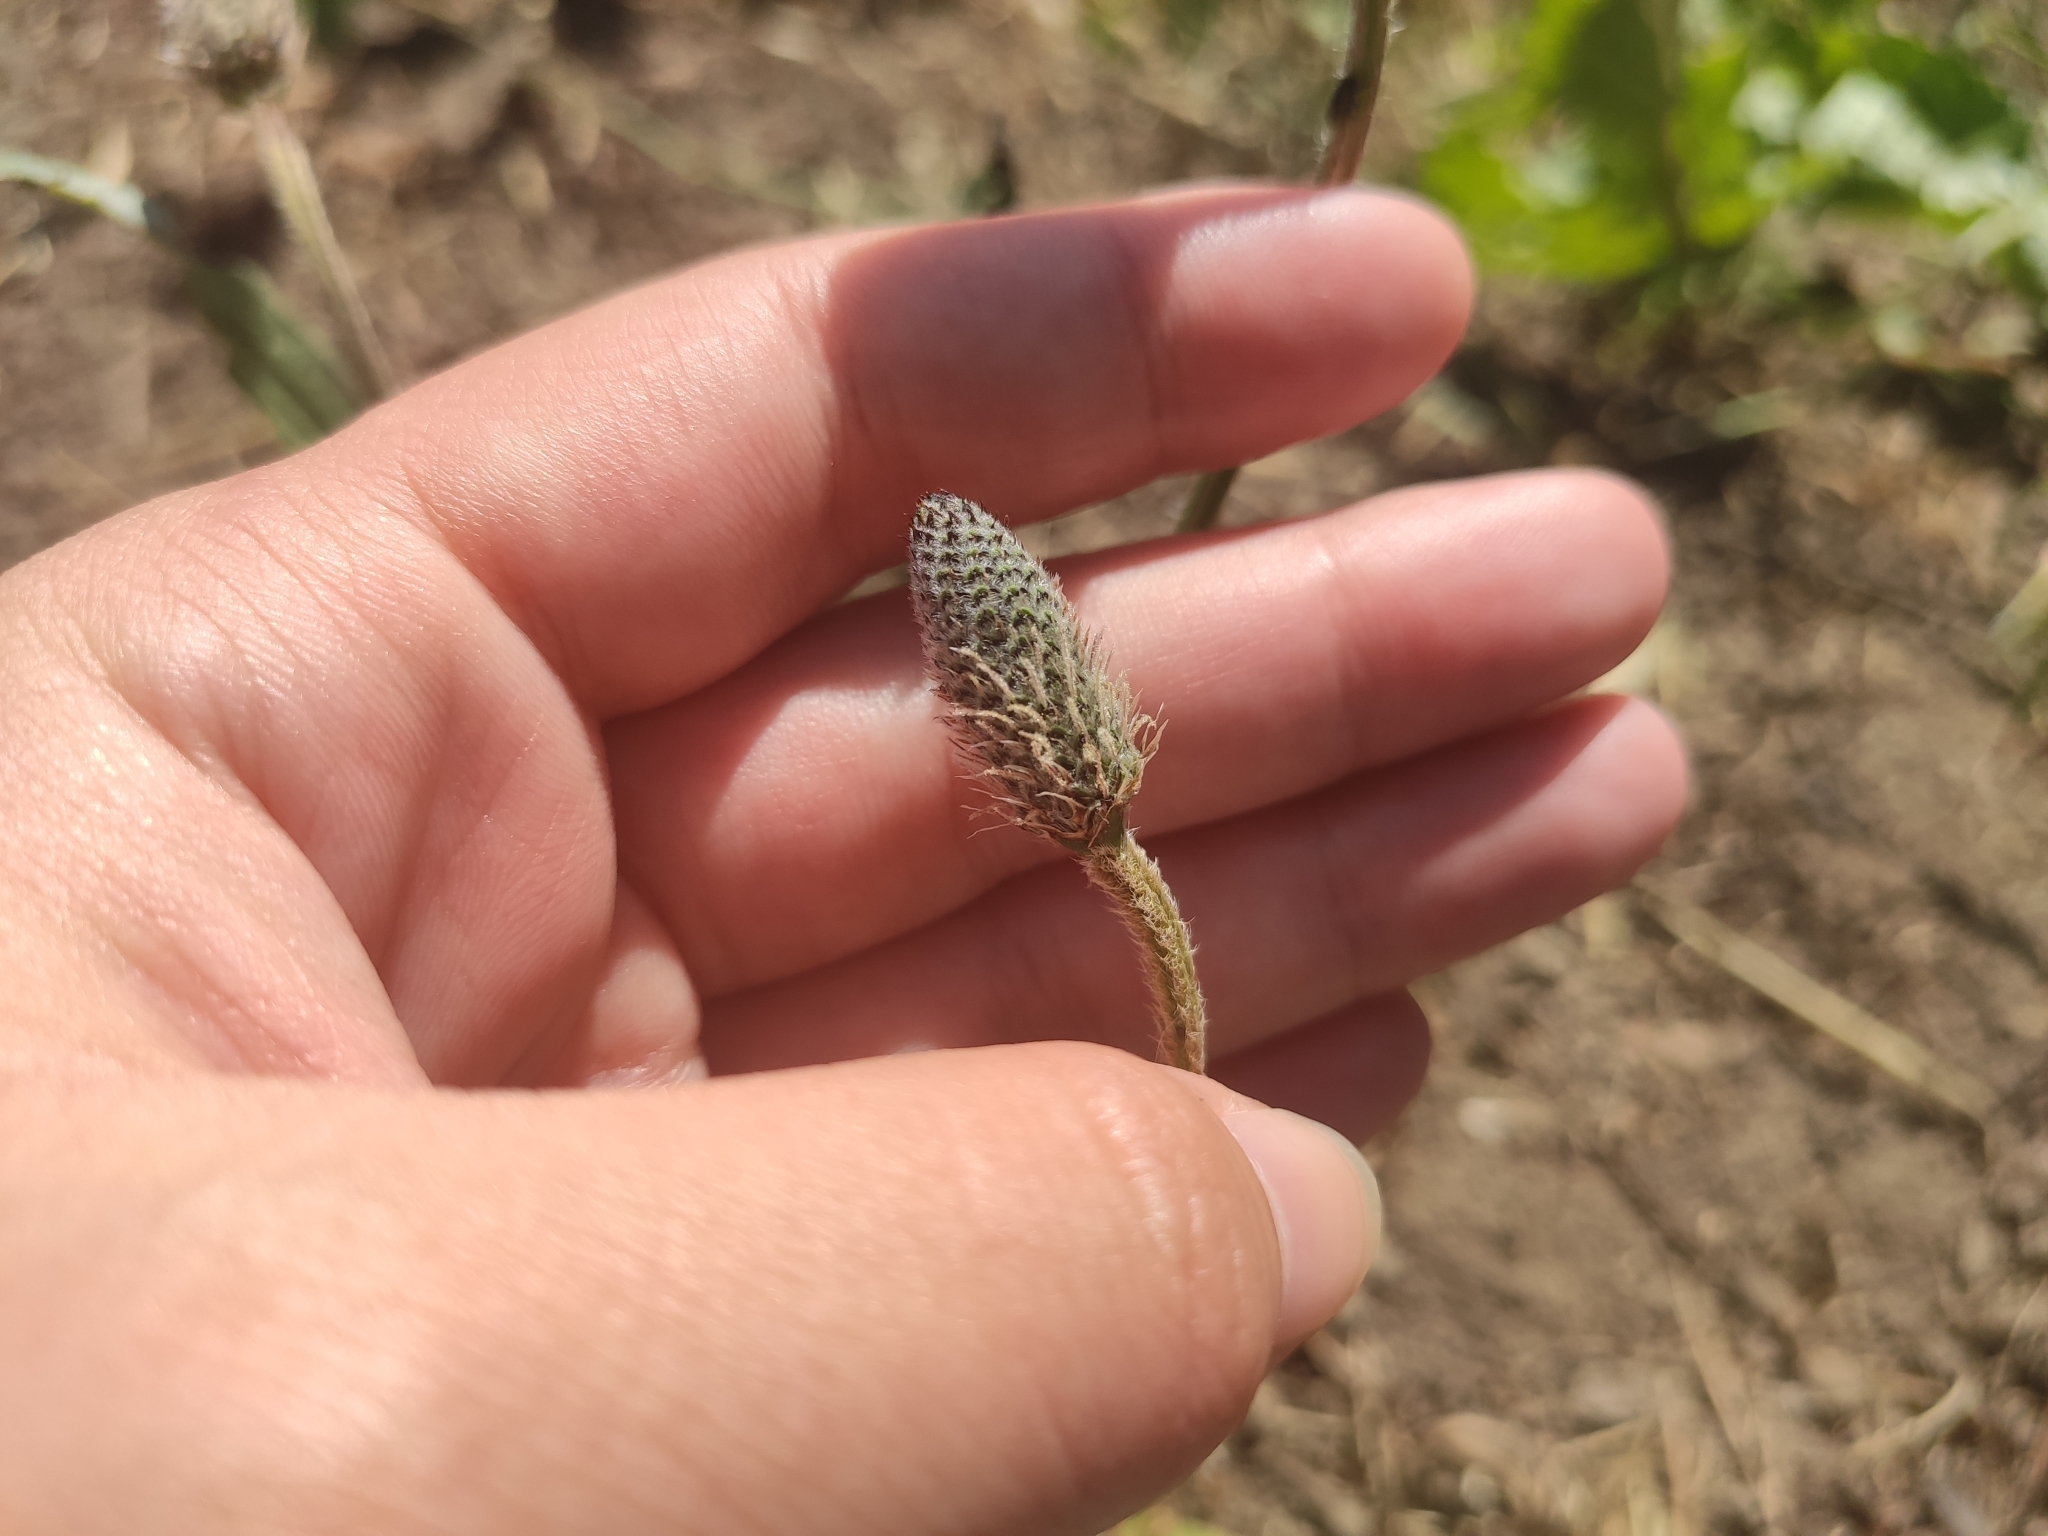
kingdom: Plantae
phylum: Tracheophyta
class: Magnoliopsida
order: Lamiales
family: Plantaginaceae
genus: Plantago
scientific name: Plantago lanceolata
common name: Ribwort plantain
